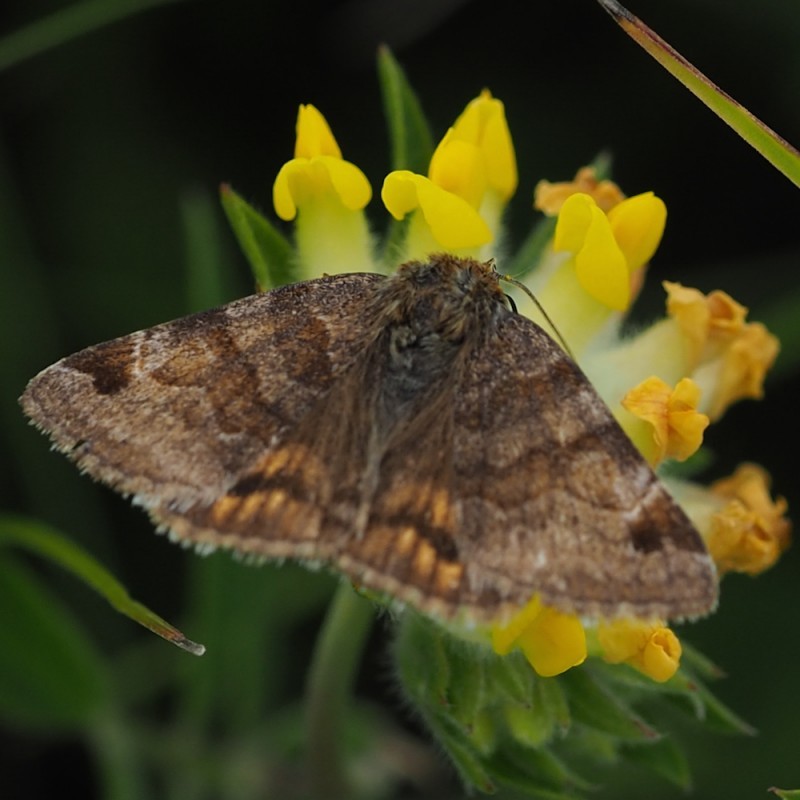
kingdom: Animalia
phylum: Arthropoda
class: Insecta
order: Lepidoptera
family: Erebidae
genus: Euclidia
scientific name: Euclidia glyphica
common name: Burnet companion
